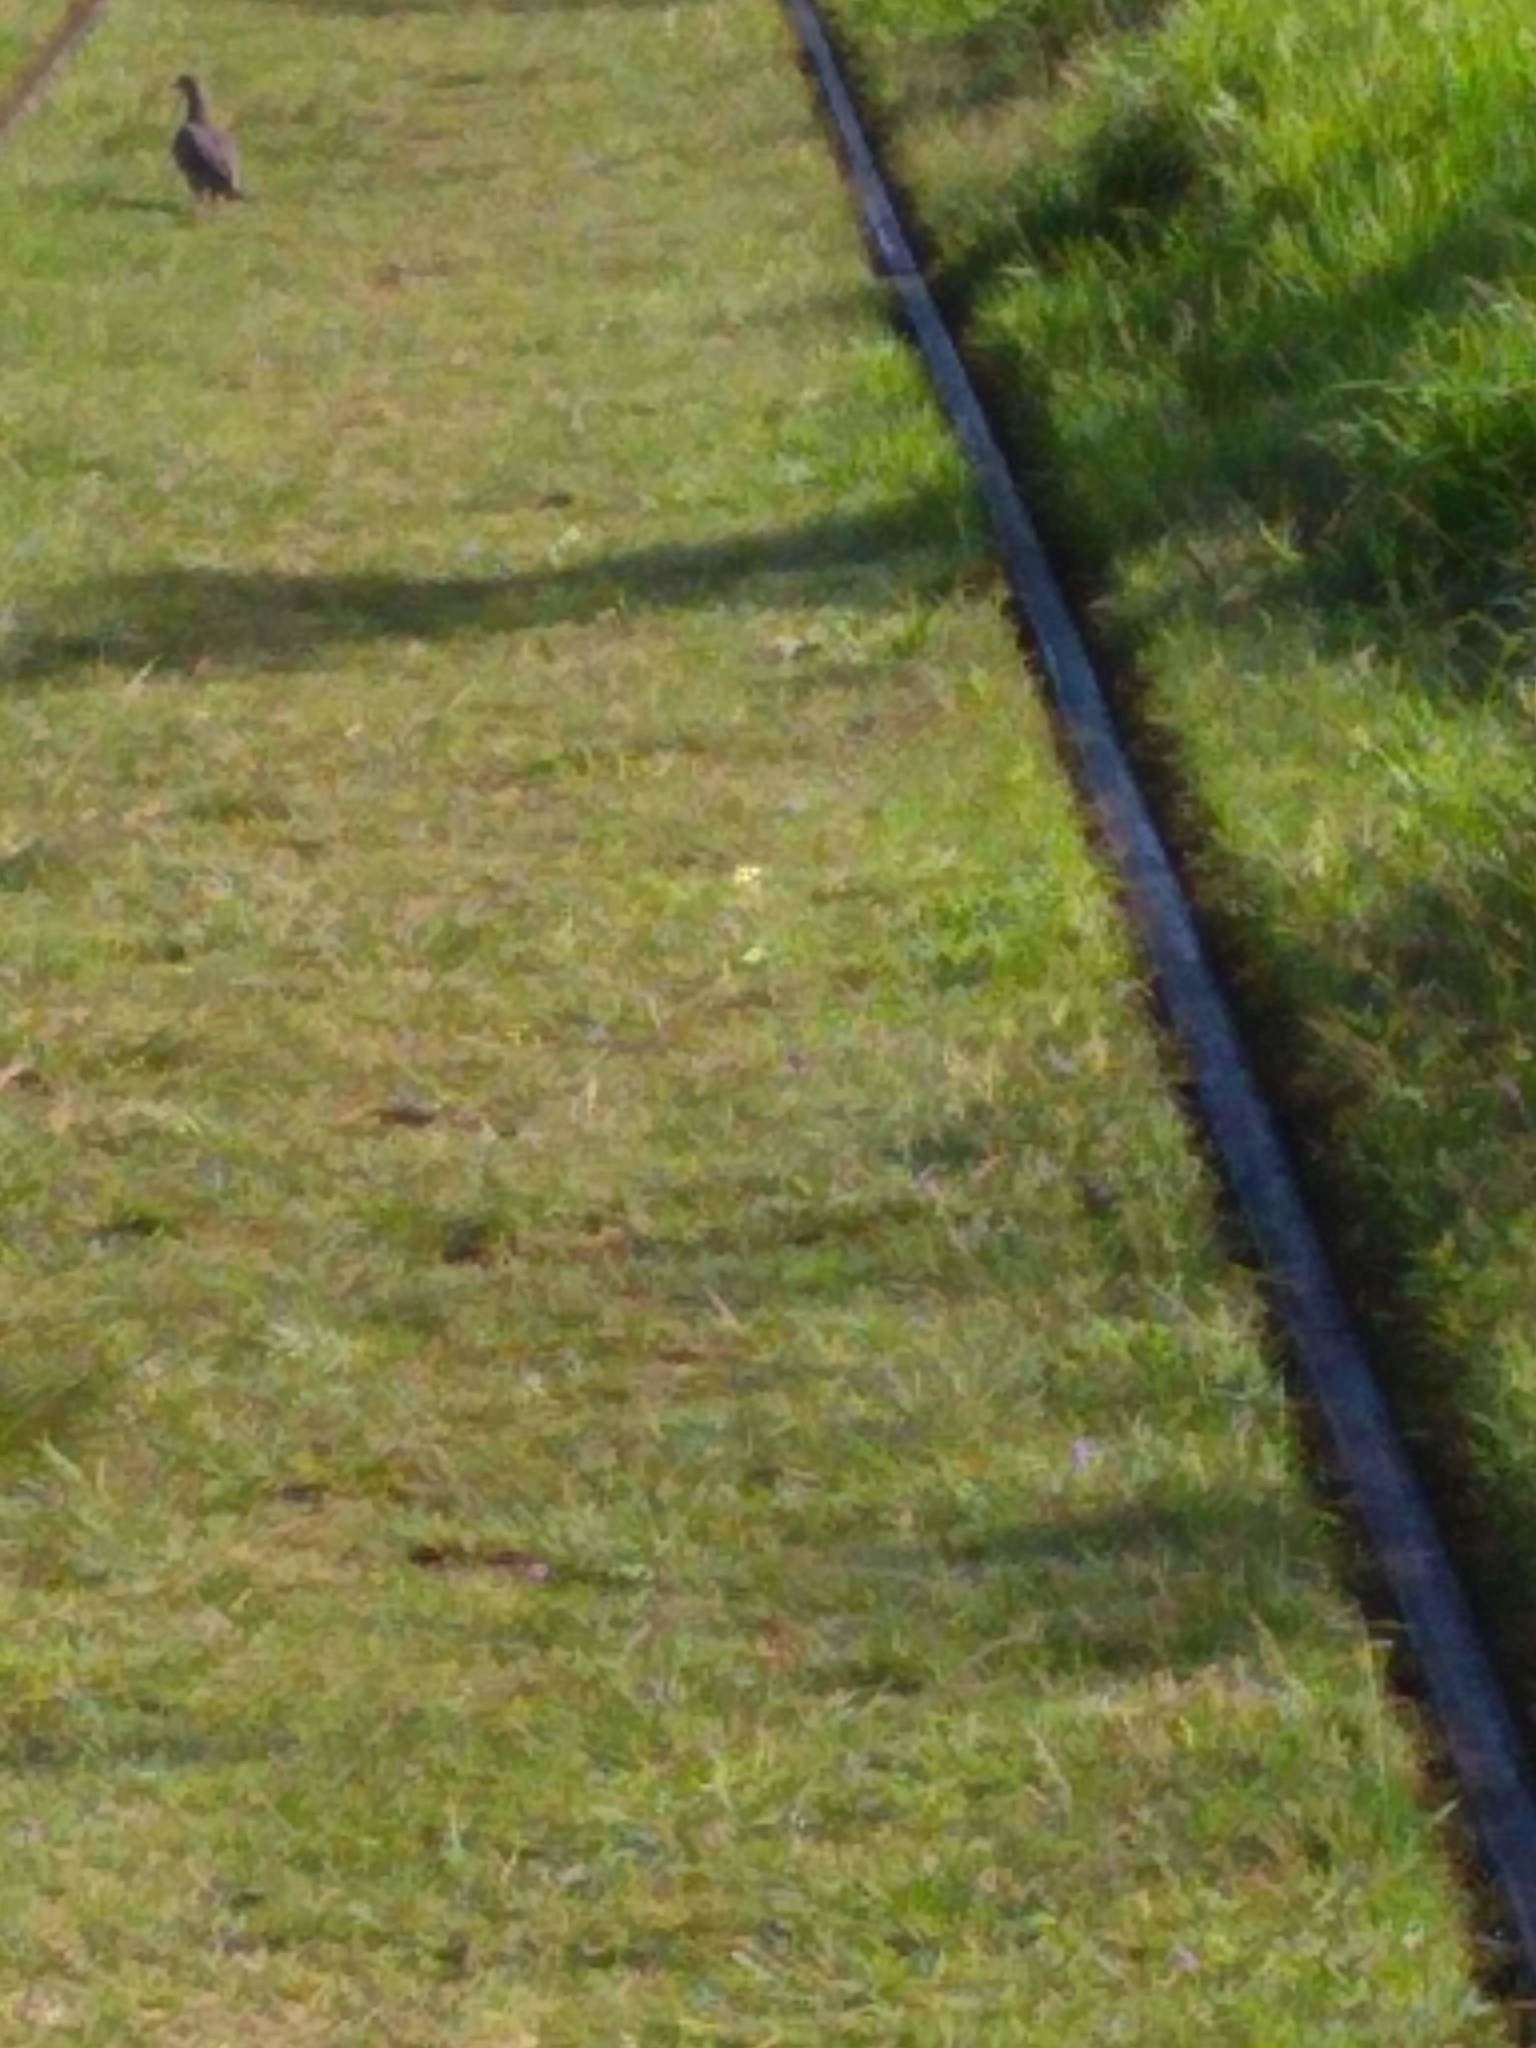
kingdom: Animalia
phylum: Chordata
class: Aves
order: Columbiformes
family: Columbidae
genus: Patagioenas
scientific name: Patagioenas picazuro
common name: Picazuro pigeon
